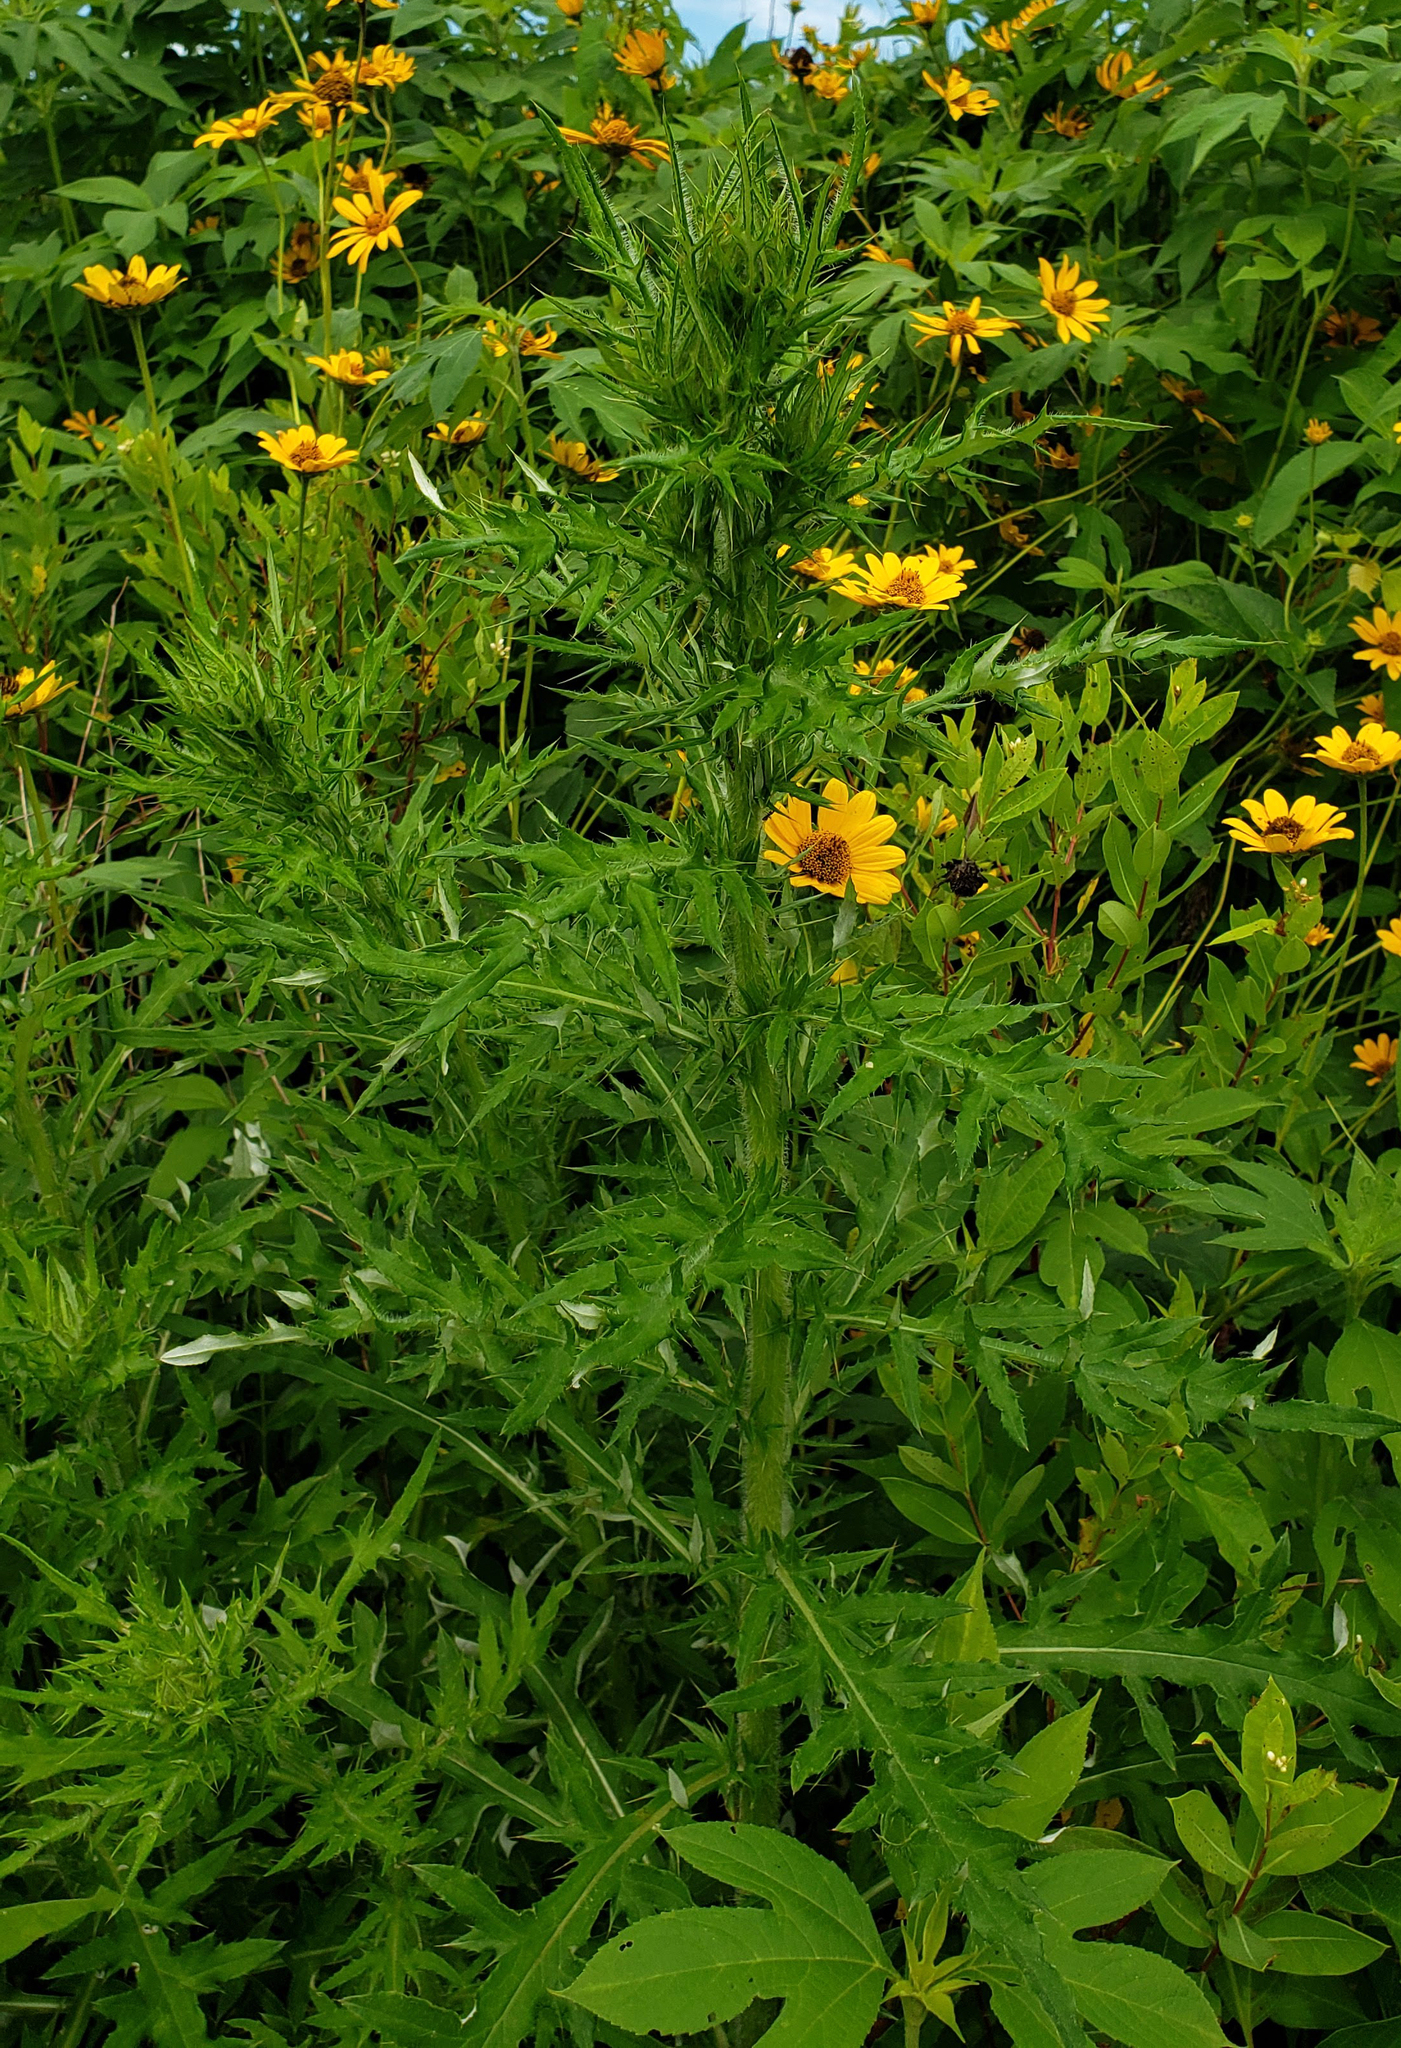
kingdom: Plantae
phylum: Tracheophyta
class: Magnoliopsida
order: Asterales
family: Asteraceae
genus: Cirsium
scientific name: Cirsium discolor
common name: Field thistle
